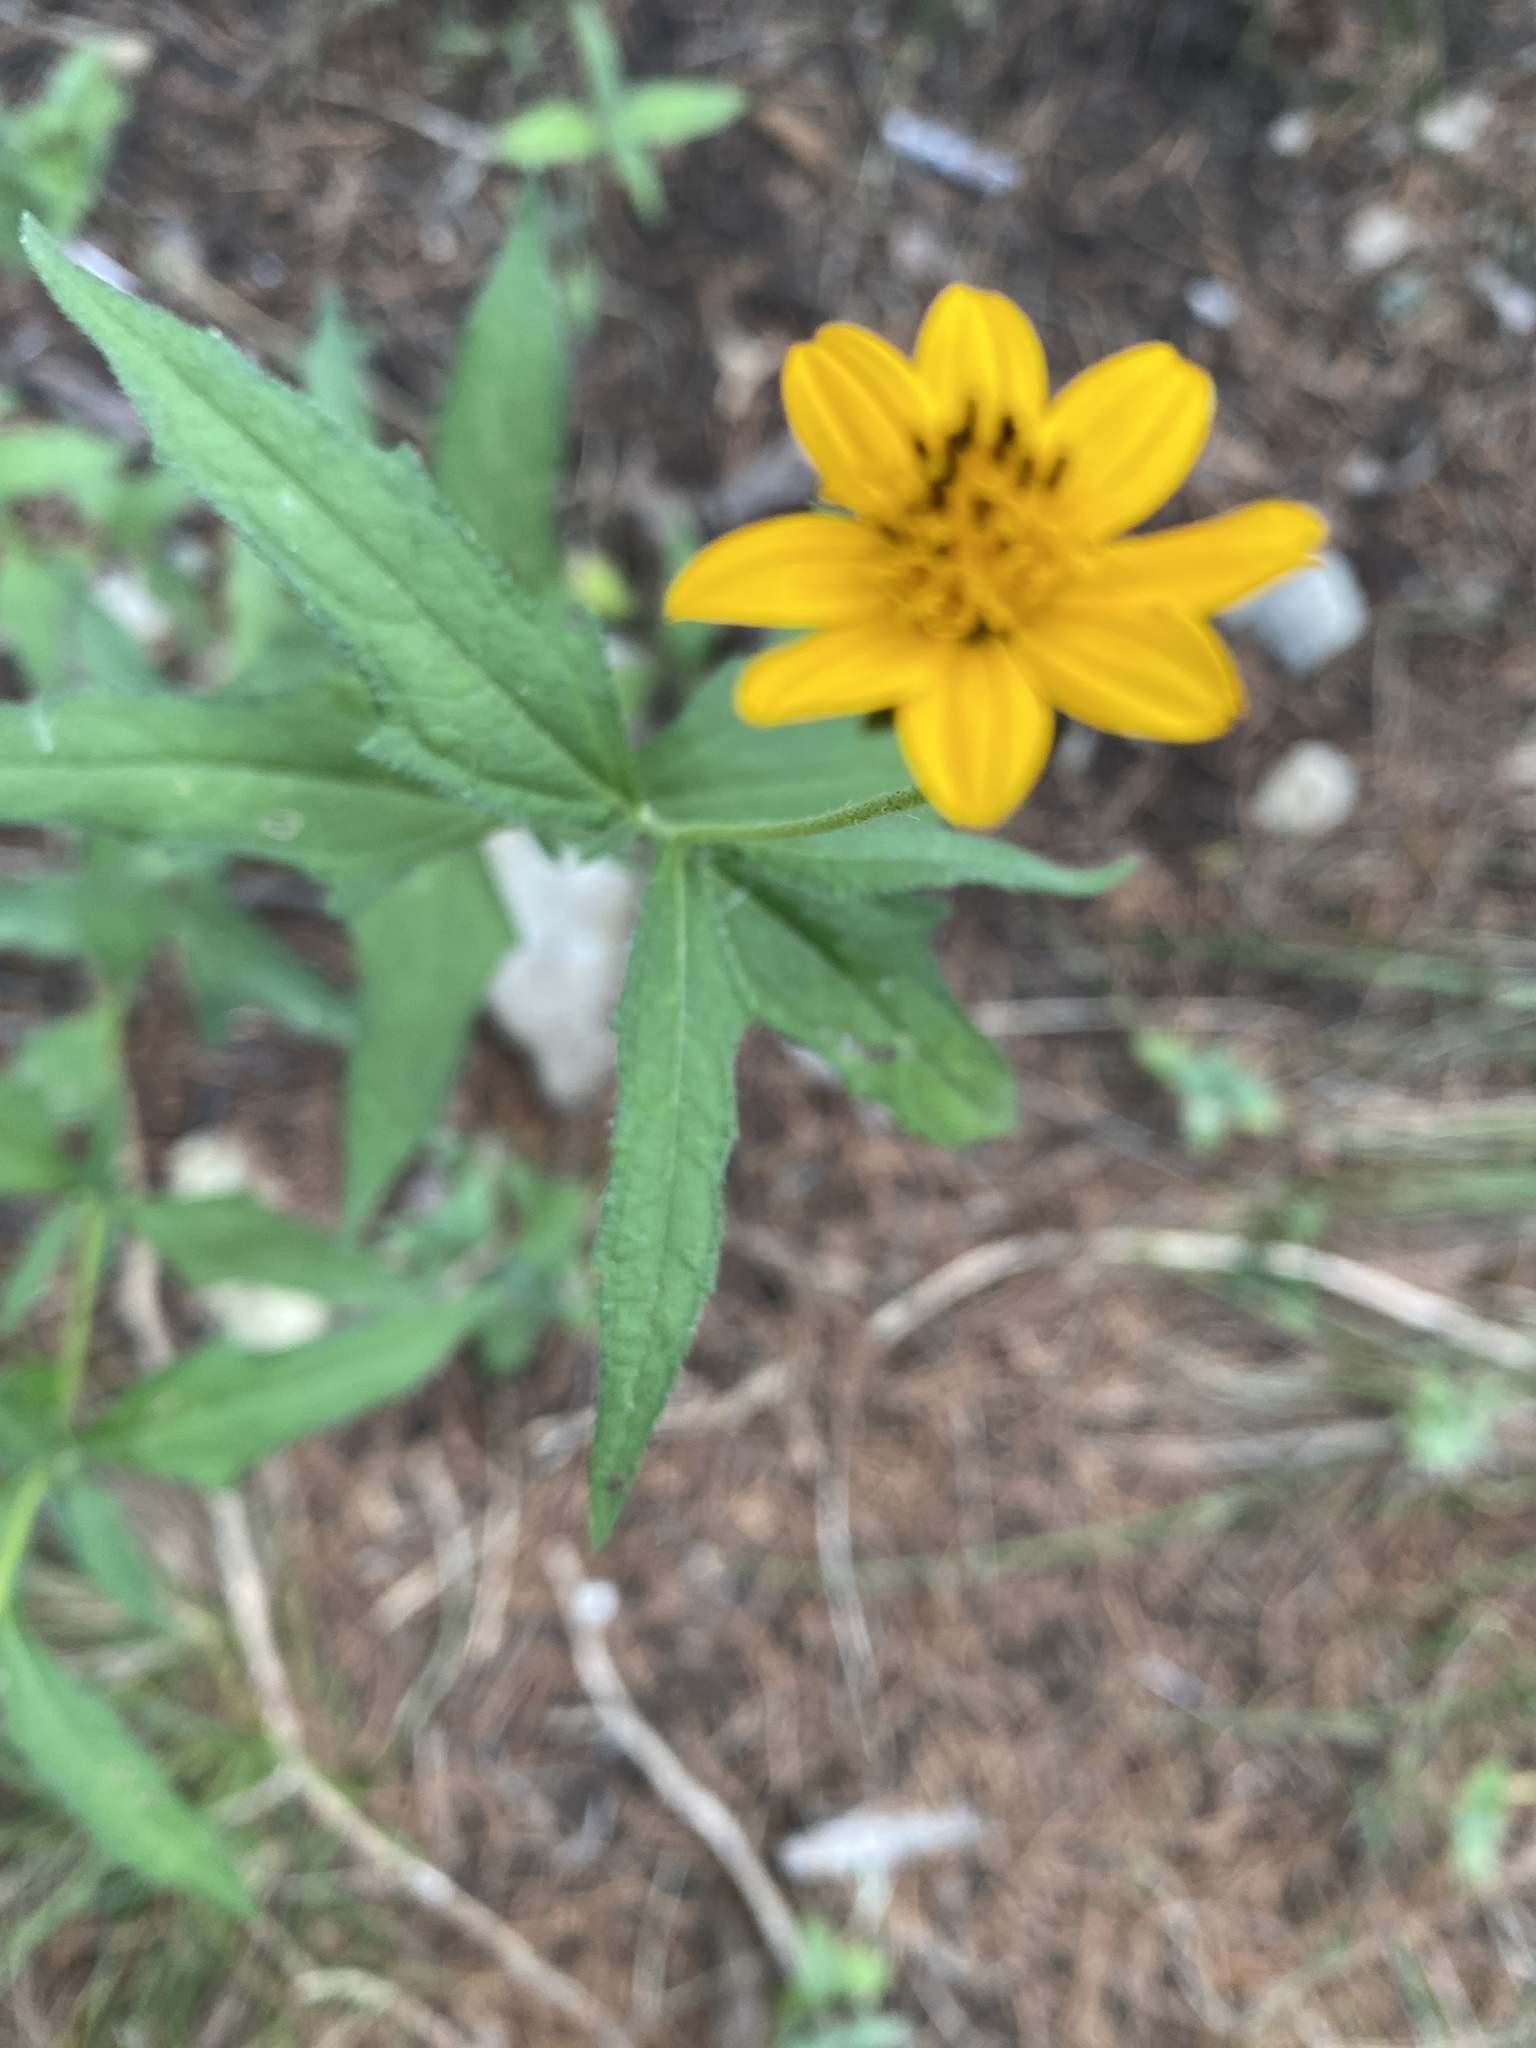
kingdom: Plantae
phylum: Tracheophyta
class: Magnoliopsida
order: Asterales
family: Asteraceae
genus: Wedelia
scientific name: Wedelia acapulcensis
